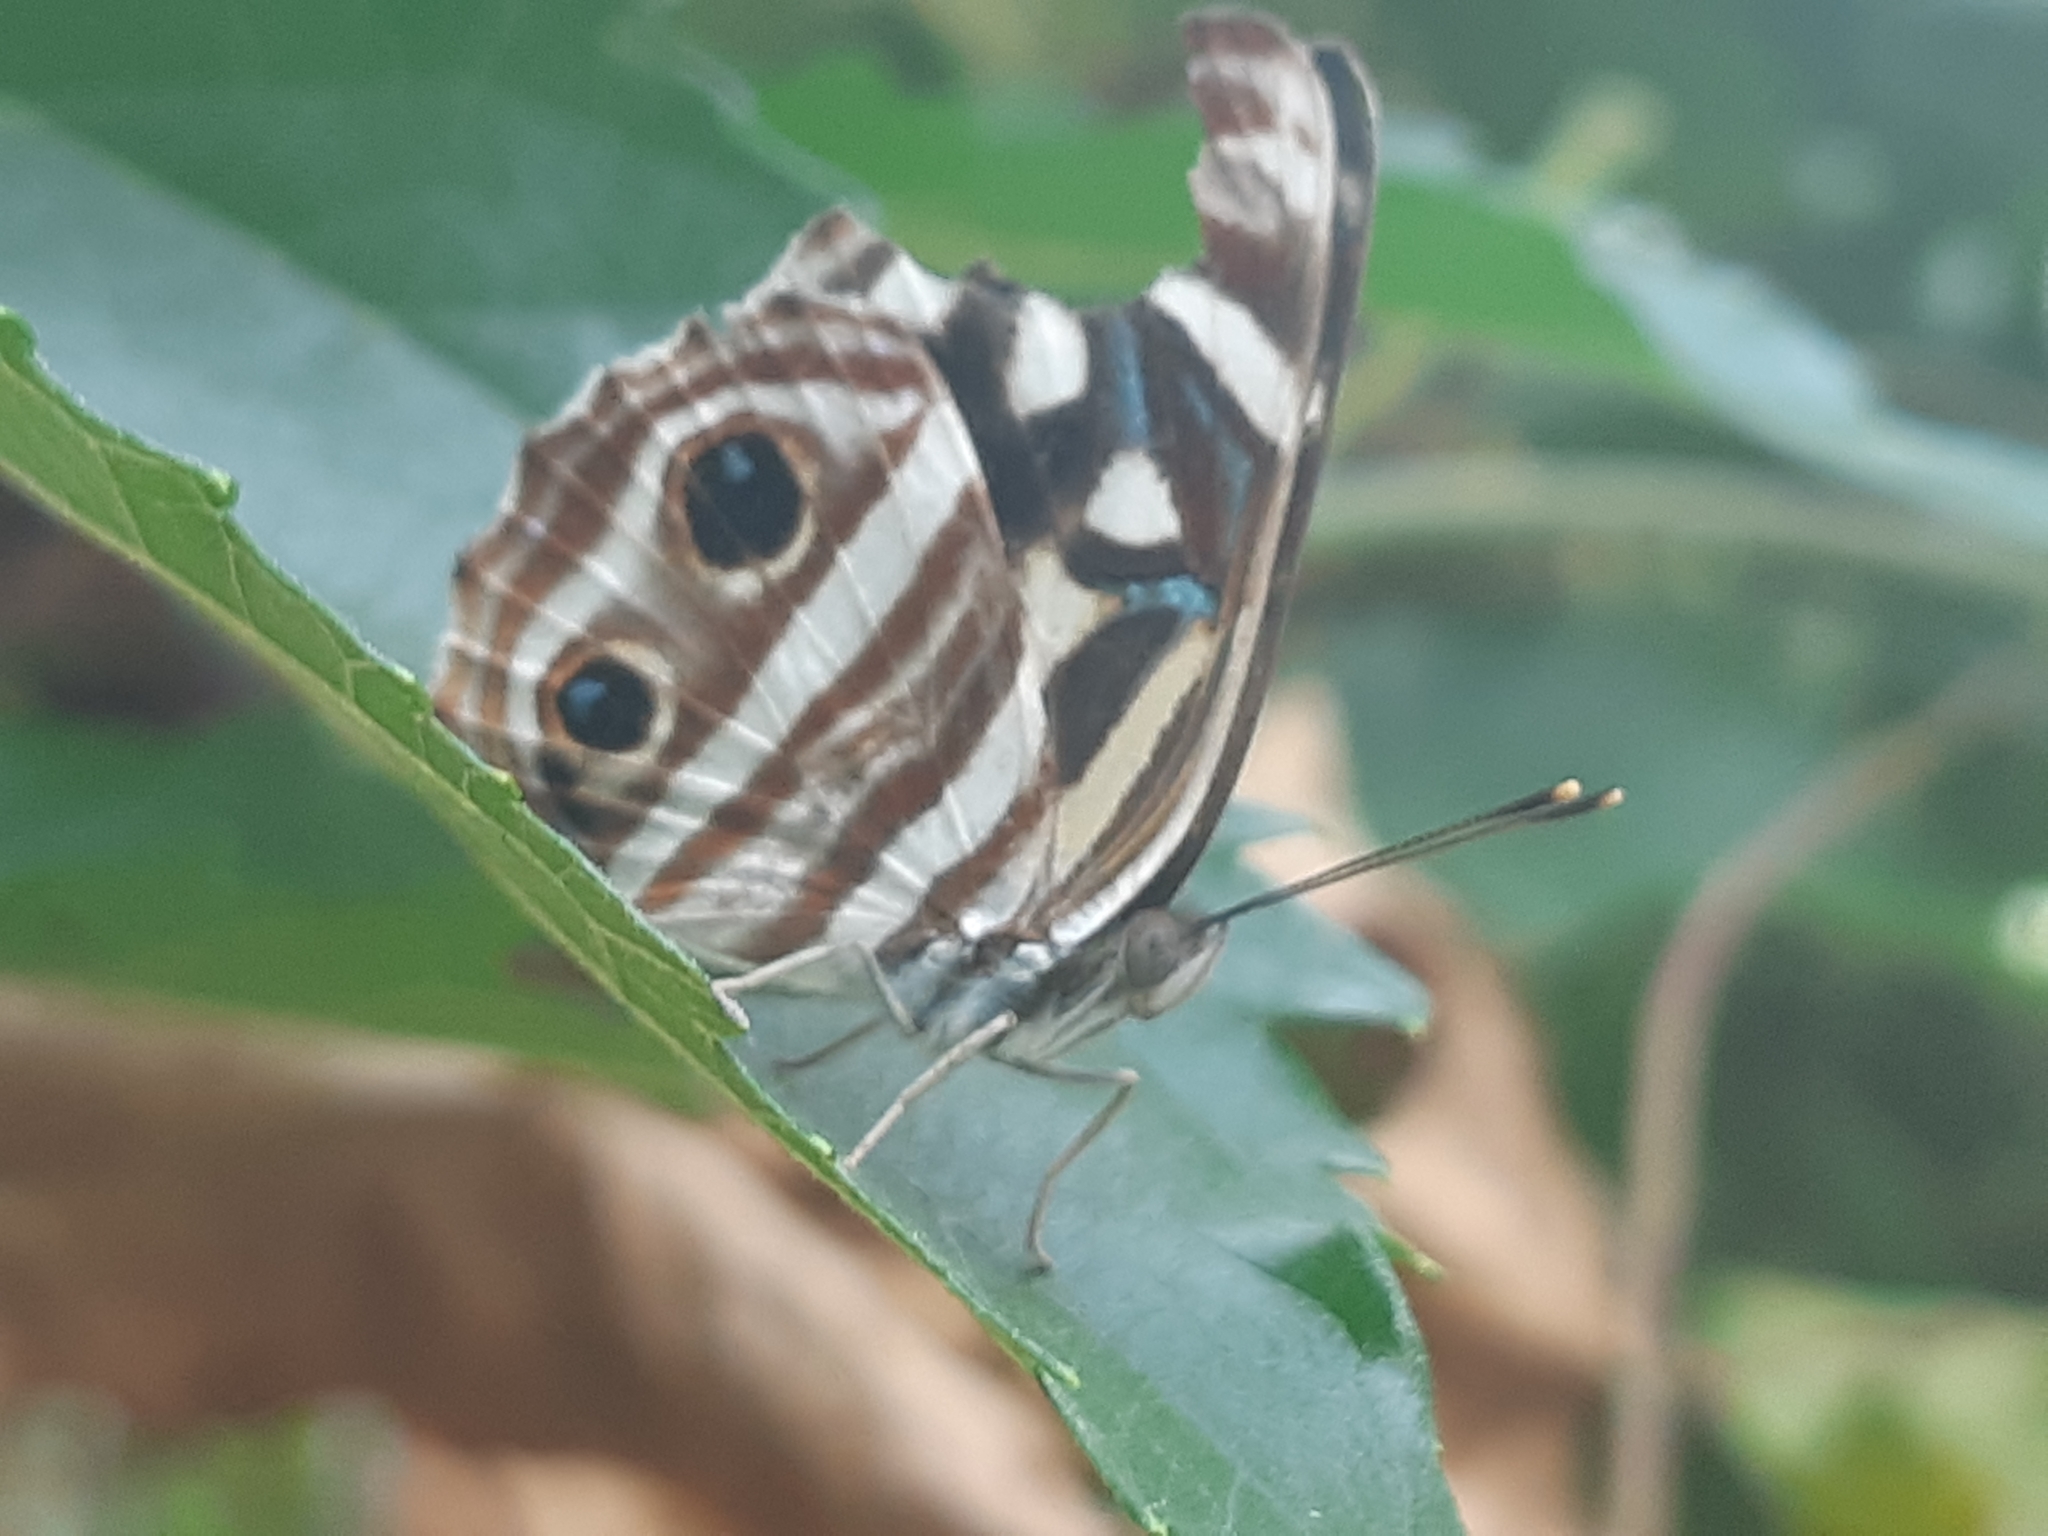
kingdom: Animalia
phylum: Arthropoda
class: Insecta
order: Lepidoptera
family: Nymphalidae
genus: Dynamine
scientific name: Dynamine mylitta
